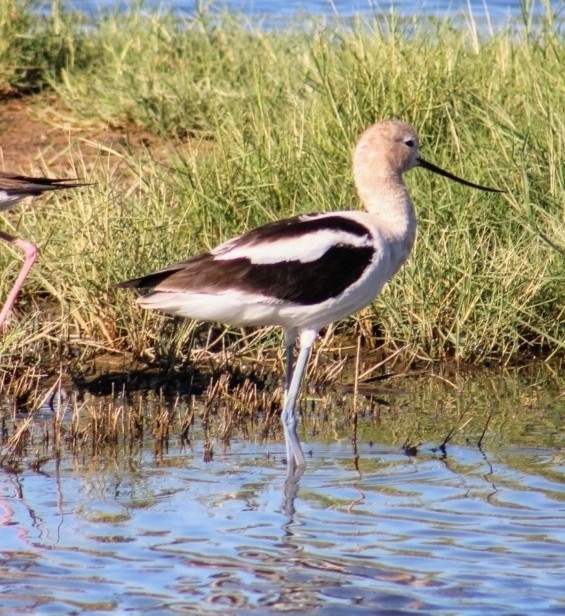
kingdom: Animalia
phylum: Chordata
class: Aves
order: Charadriiformes
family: Recurvirostridae
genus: Recurvirostra
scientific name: Recurvirostra americana
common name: American avocet
